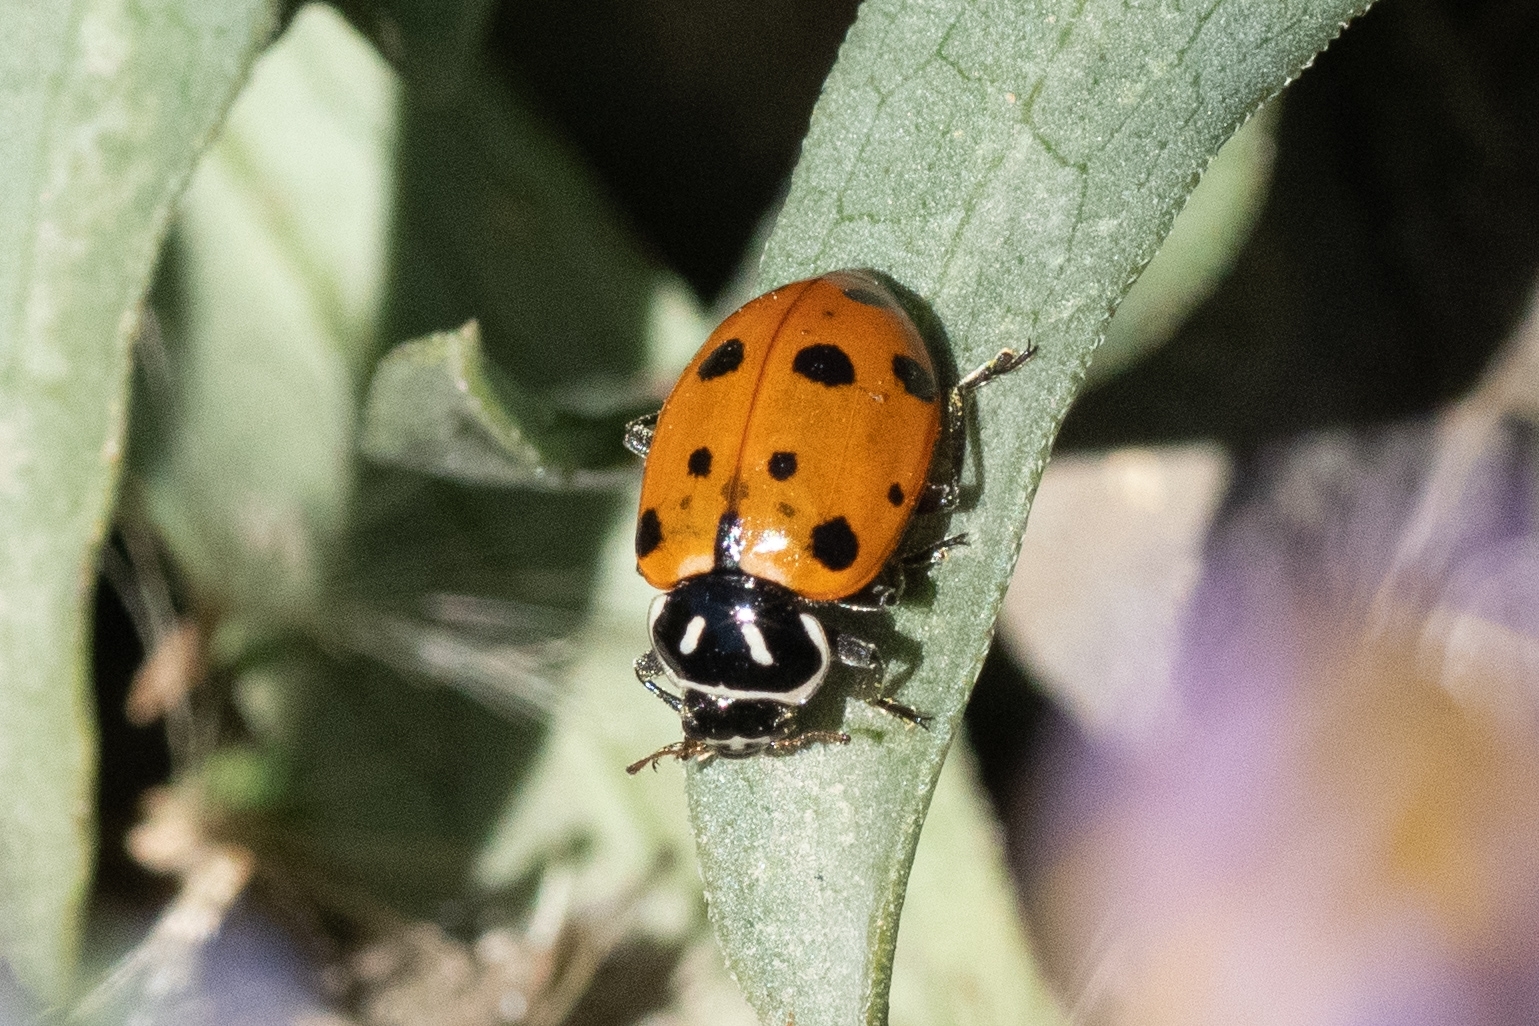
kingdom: Animalia
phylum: Arthropoda
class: Insecta
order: Coleoptera
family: Coccinellidae
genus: Hippodamia
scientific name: Hippodamia convergens
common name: Convergent lady beetle
